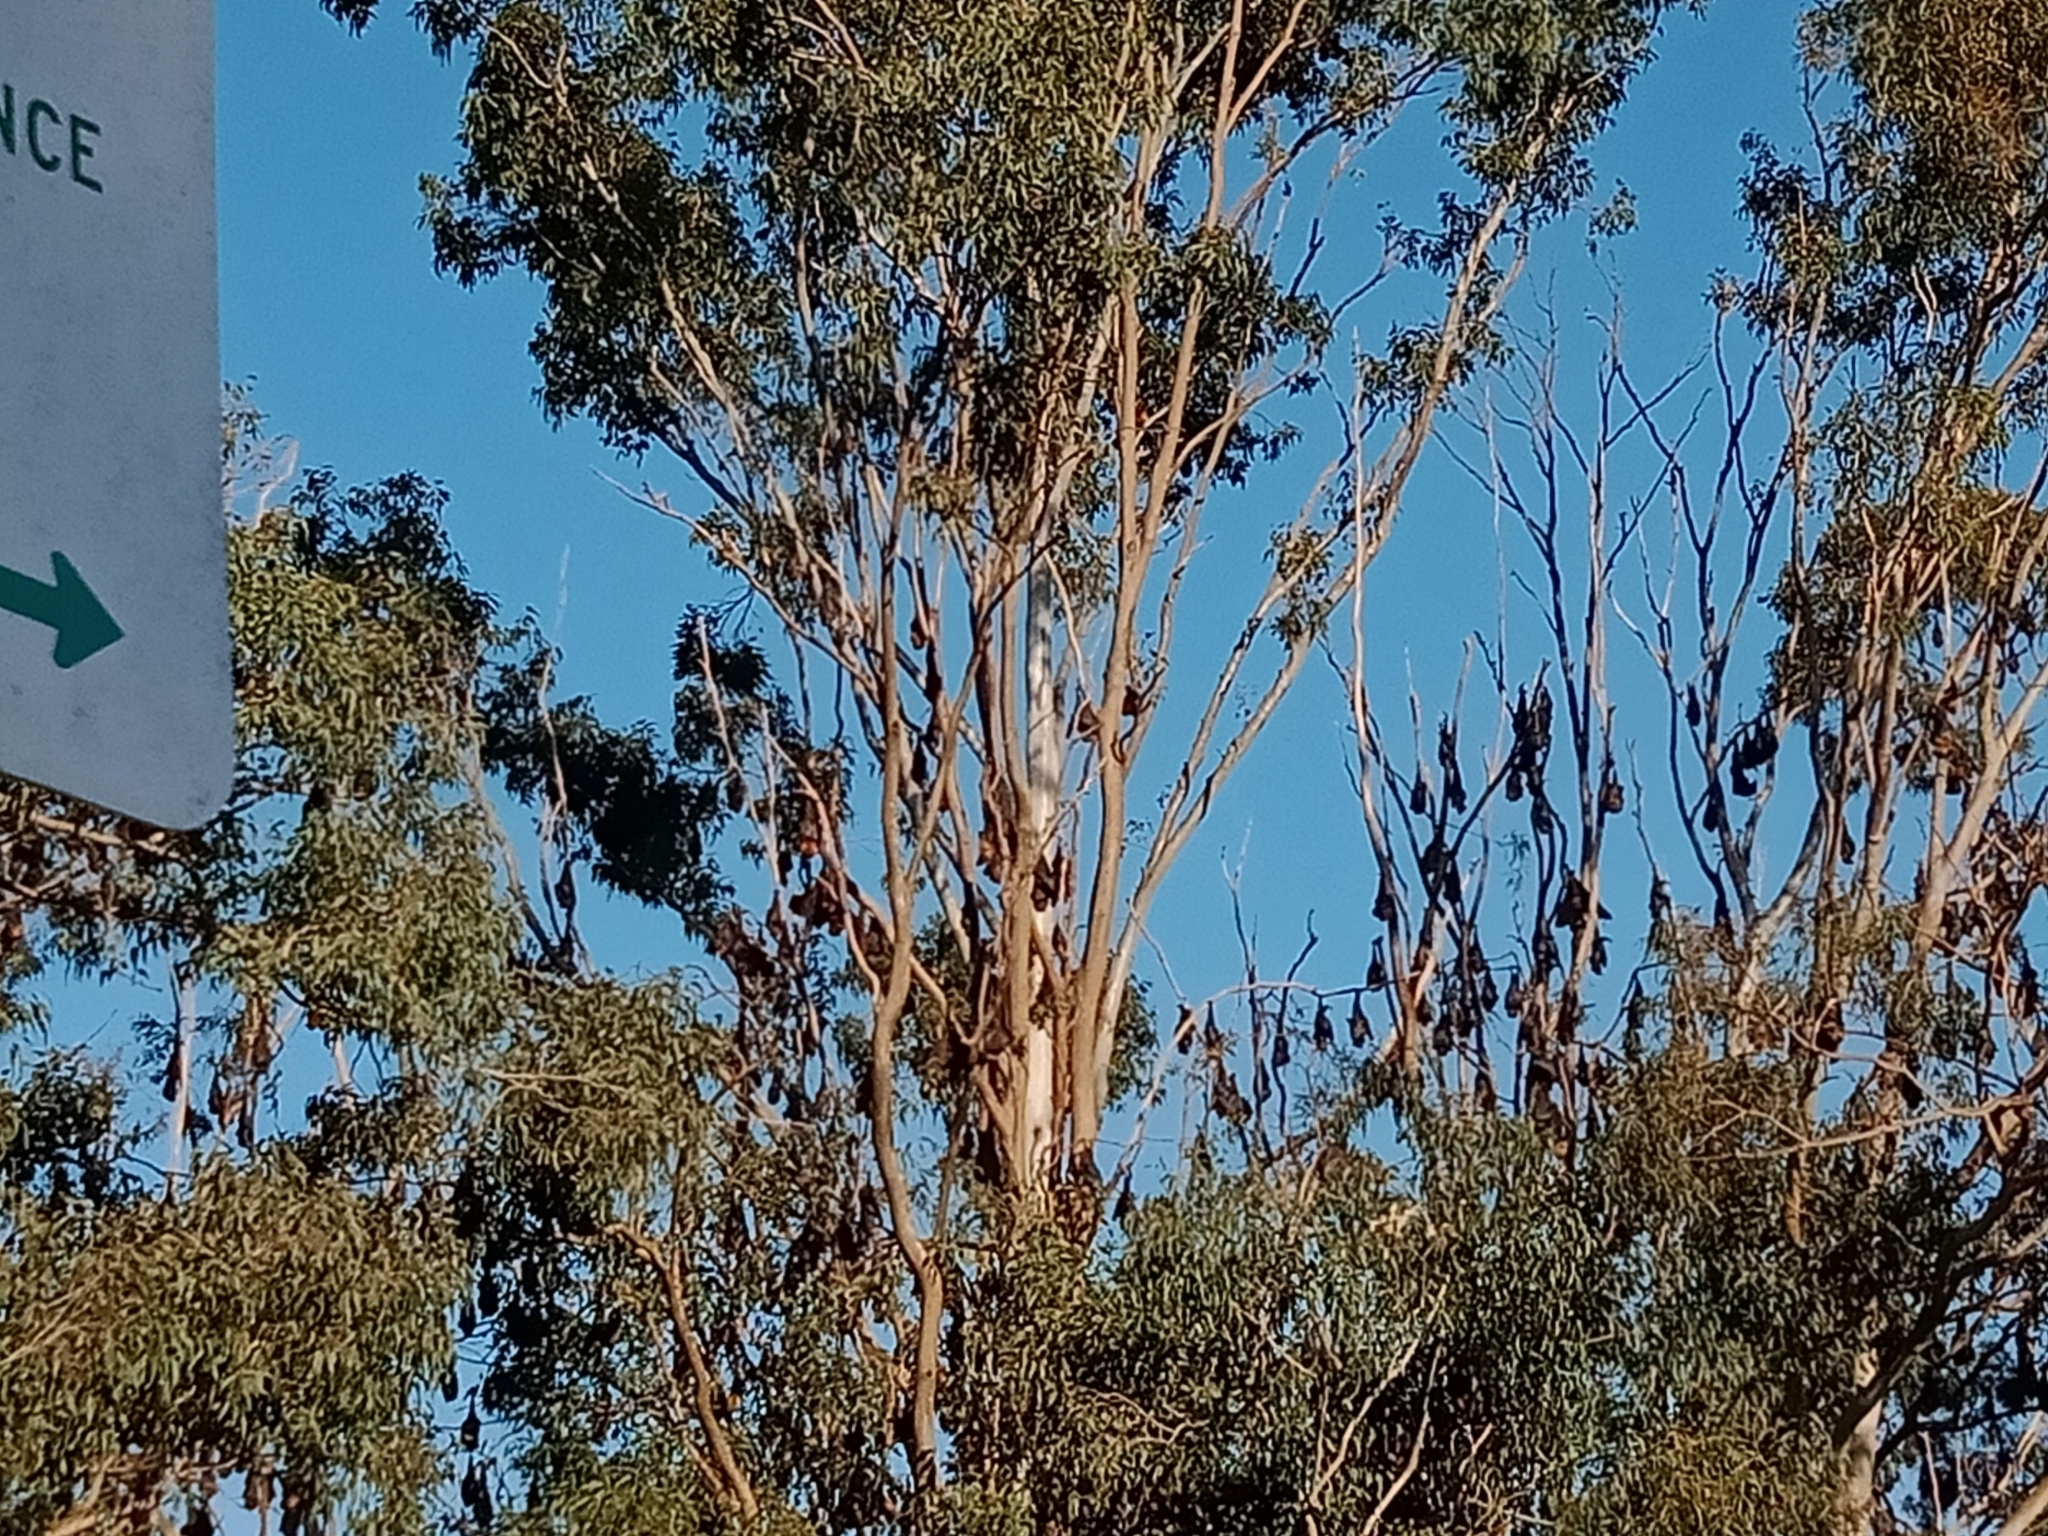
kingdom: Animalia
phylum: Chordata
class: Mammalia
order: Chiroptera
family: Pteropodidae
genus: Pteropus
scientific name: Pteropus poliocephalus
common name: Gray-headed flying fox
